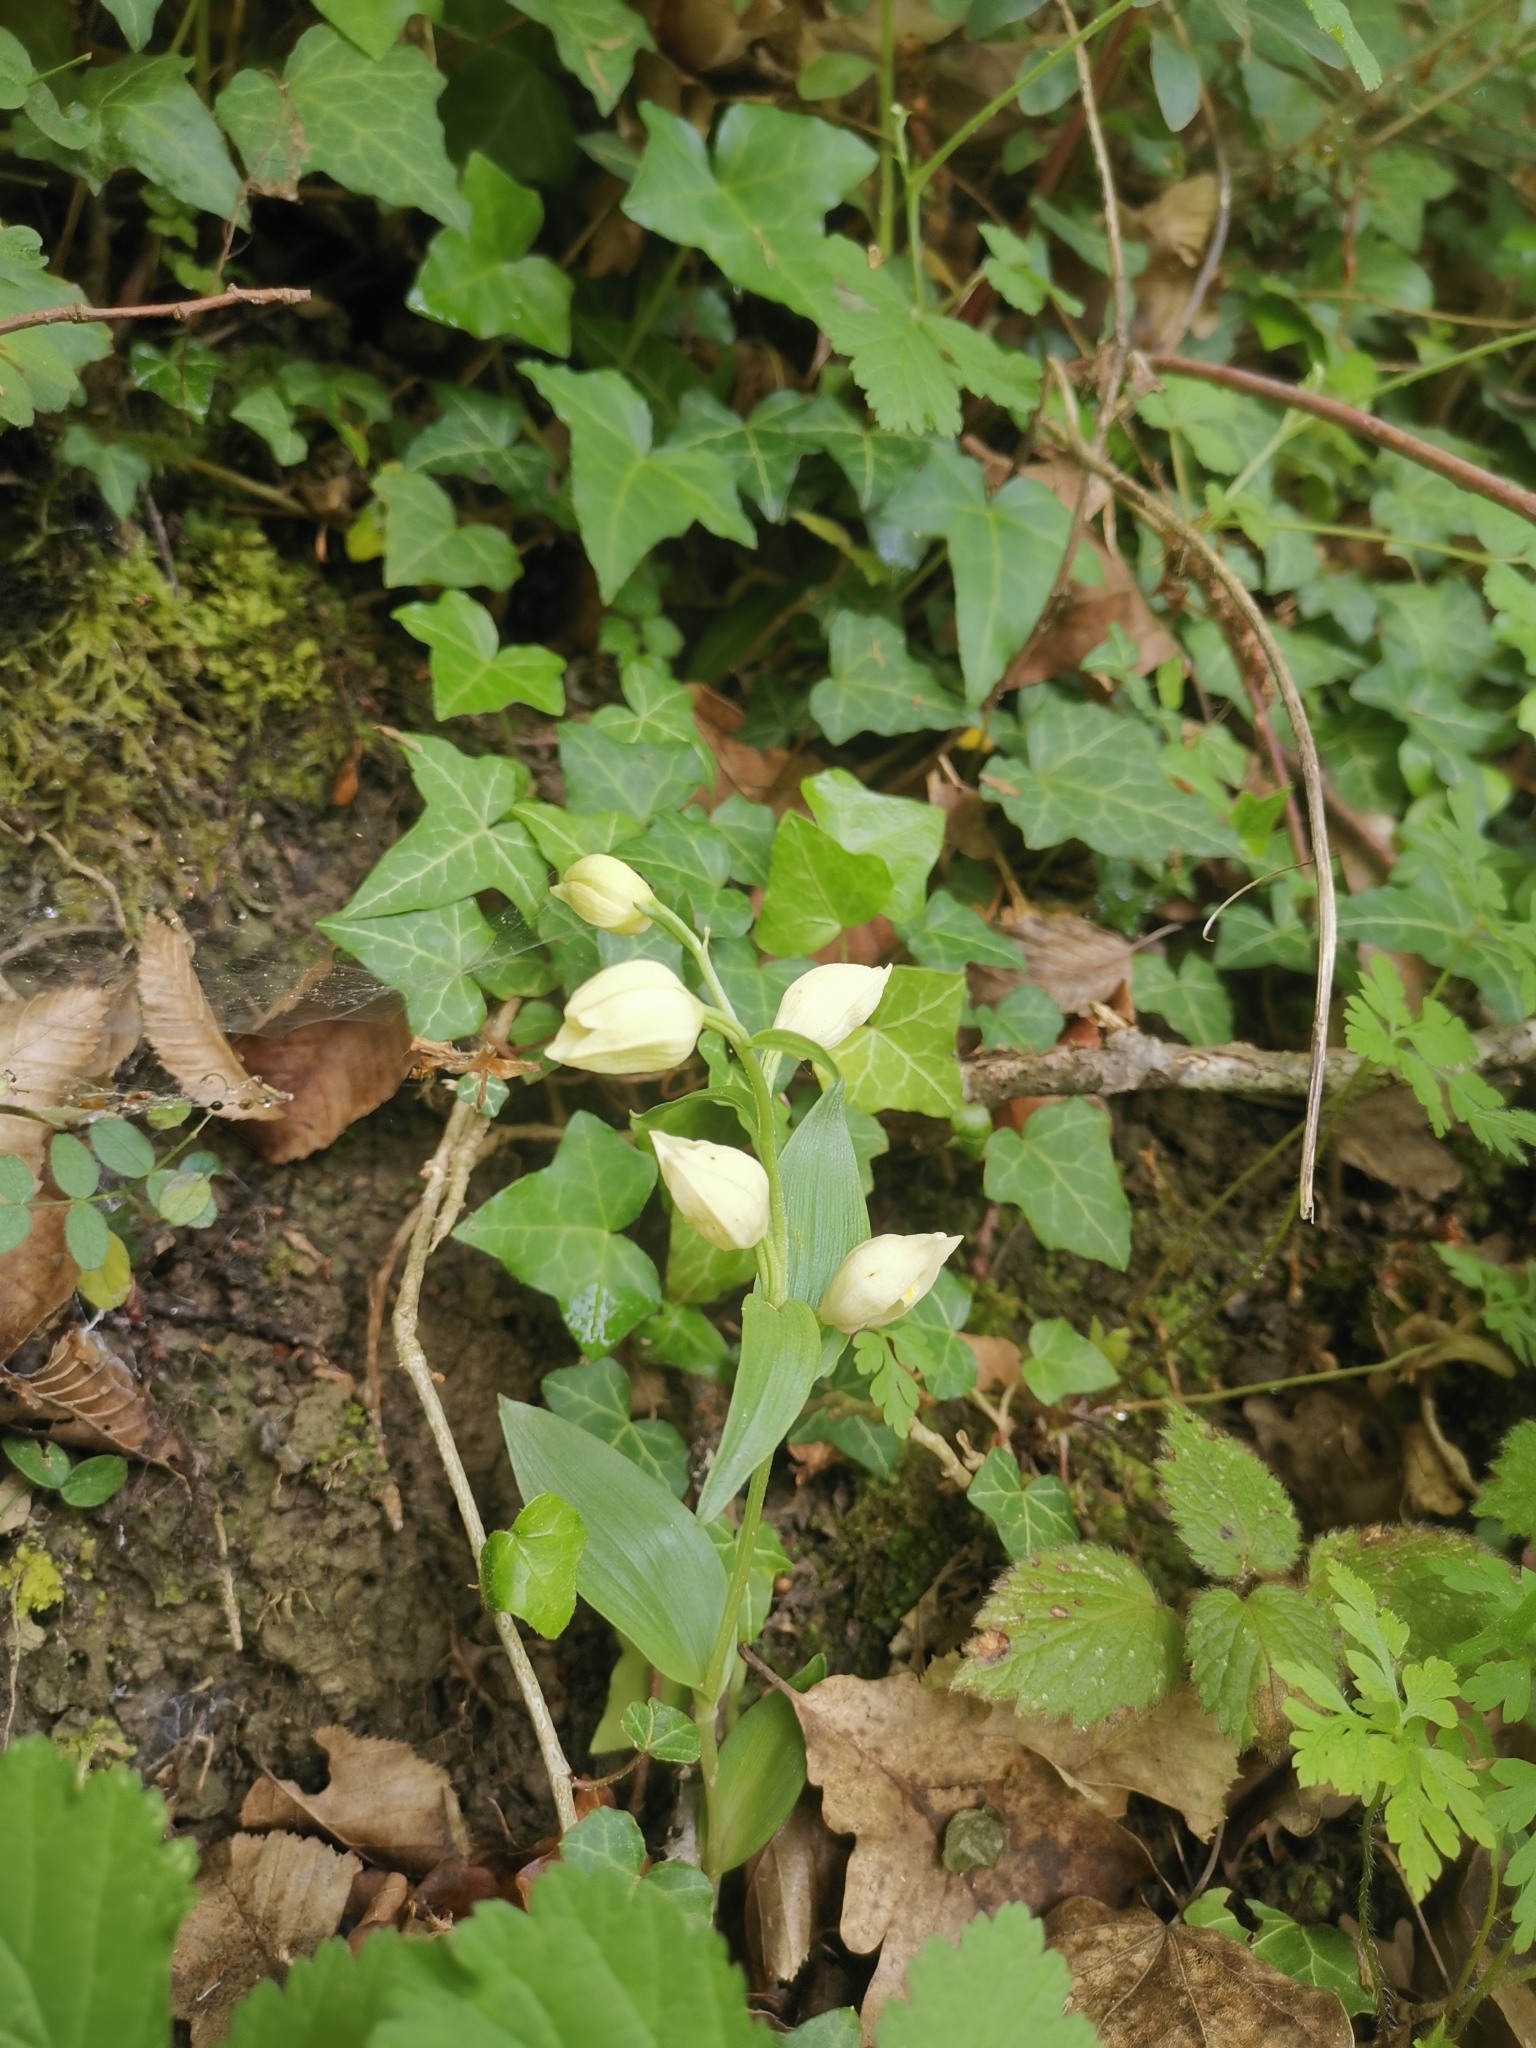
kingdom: Plantae
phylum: Tracheophyta
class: Liliopsida
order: Asparagales
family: Orchidaceae
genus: Cephalanthera
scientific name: Cephalanthera damasonium
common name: White helleborine
